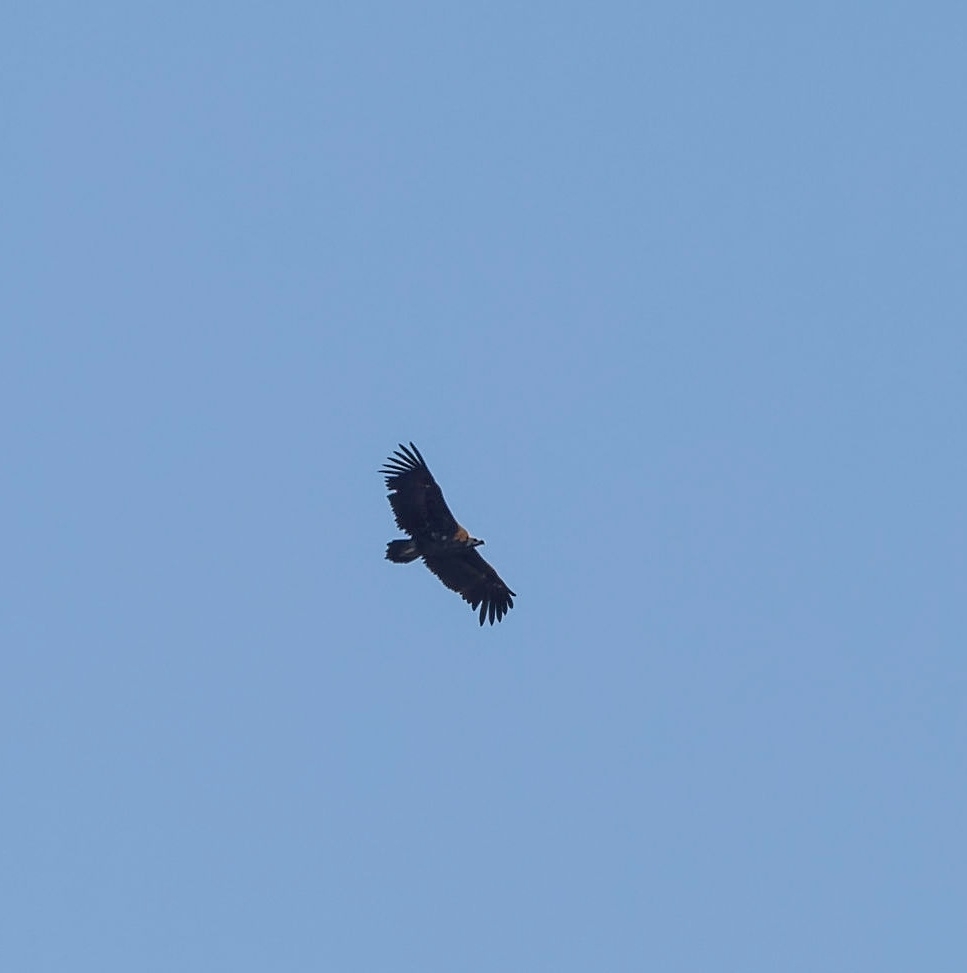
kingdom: Animalia
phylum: Chordata
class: Aves
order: Accipitriformes
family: Accipitridae
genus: Aegypius
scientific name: Aegypius monachus
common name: Cinereous vulture
